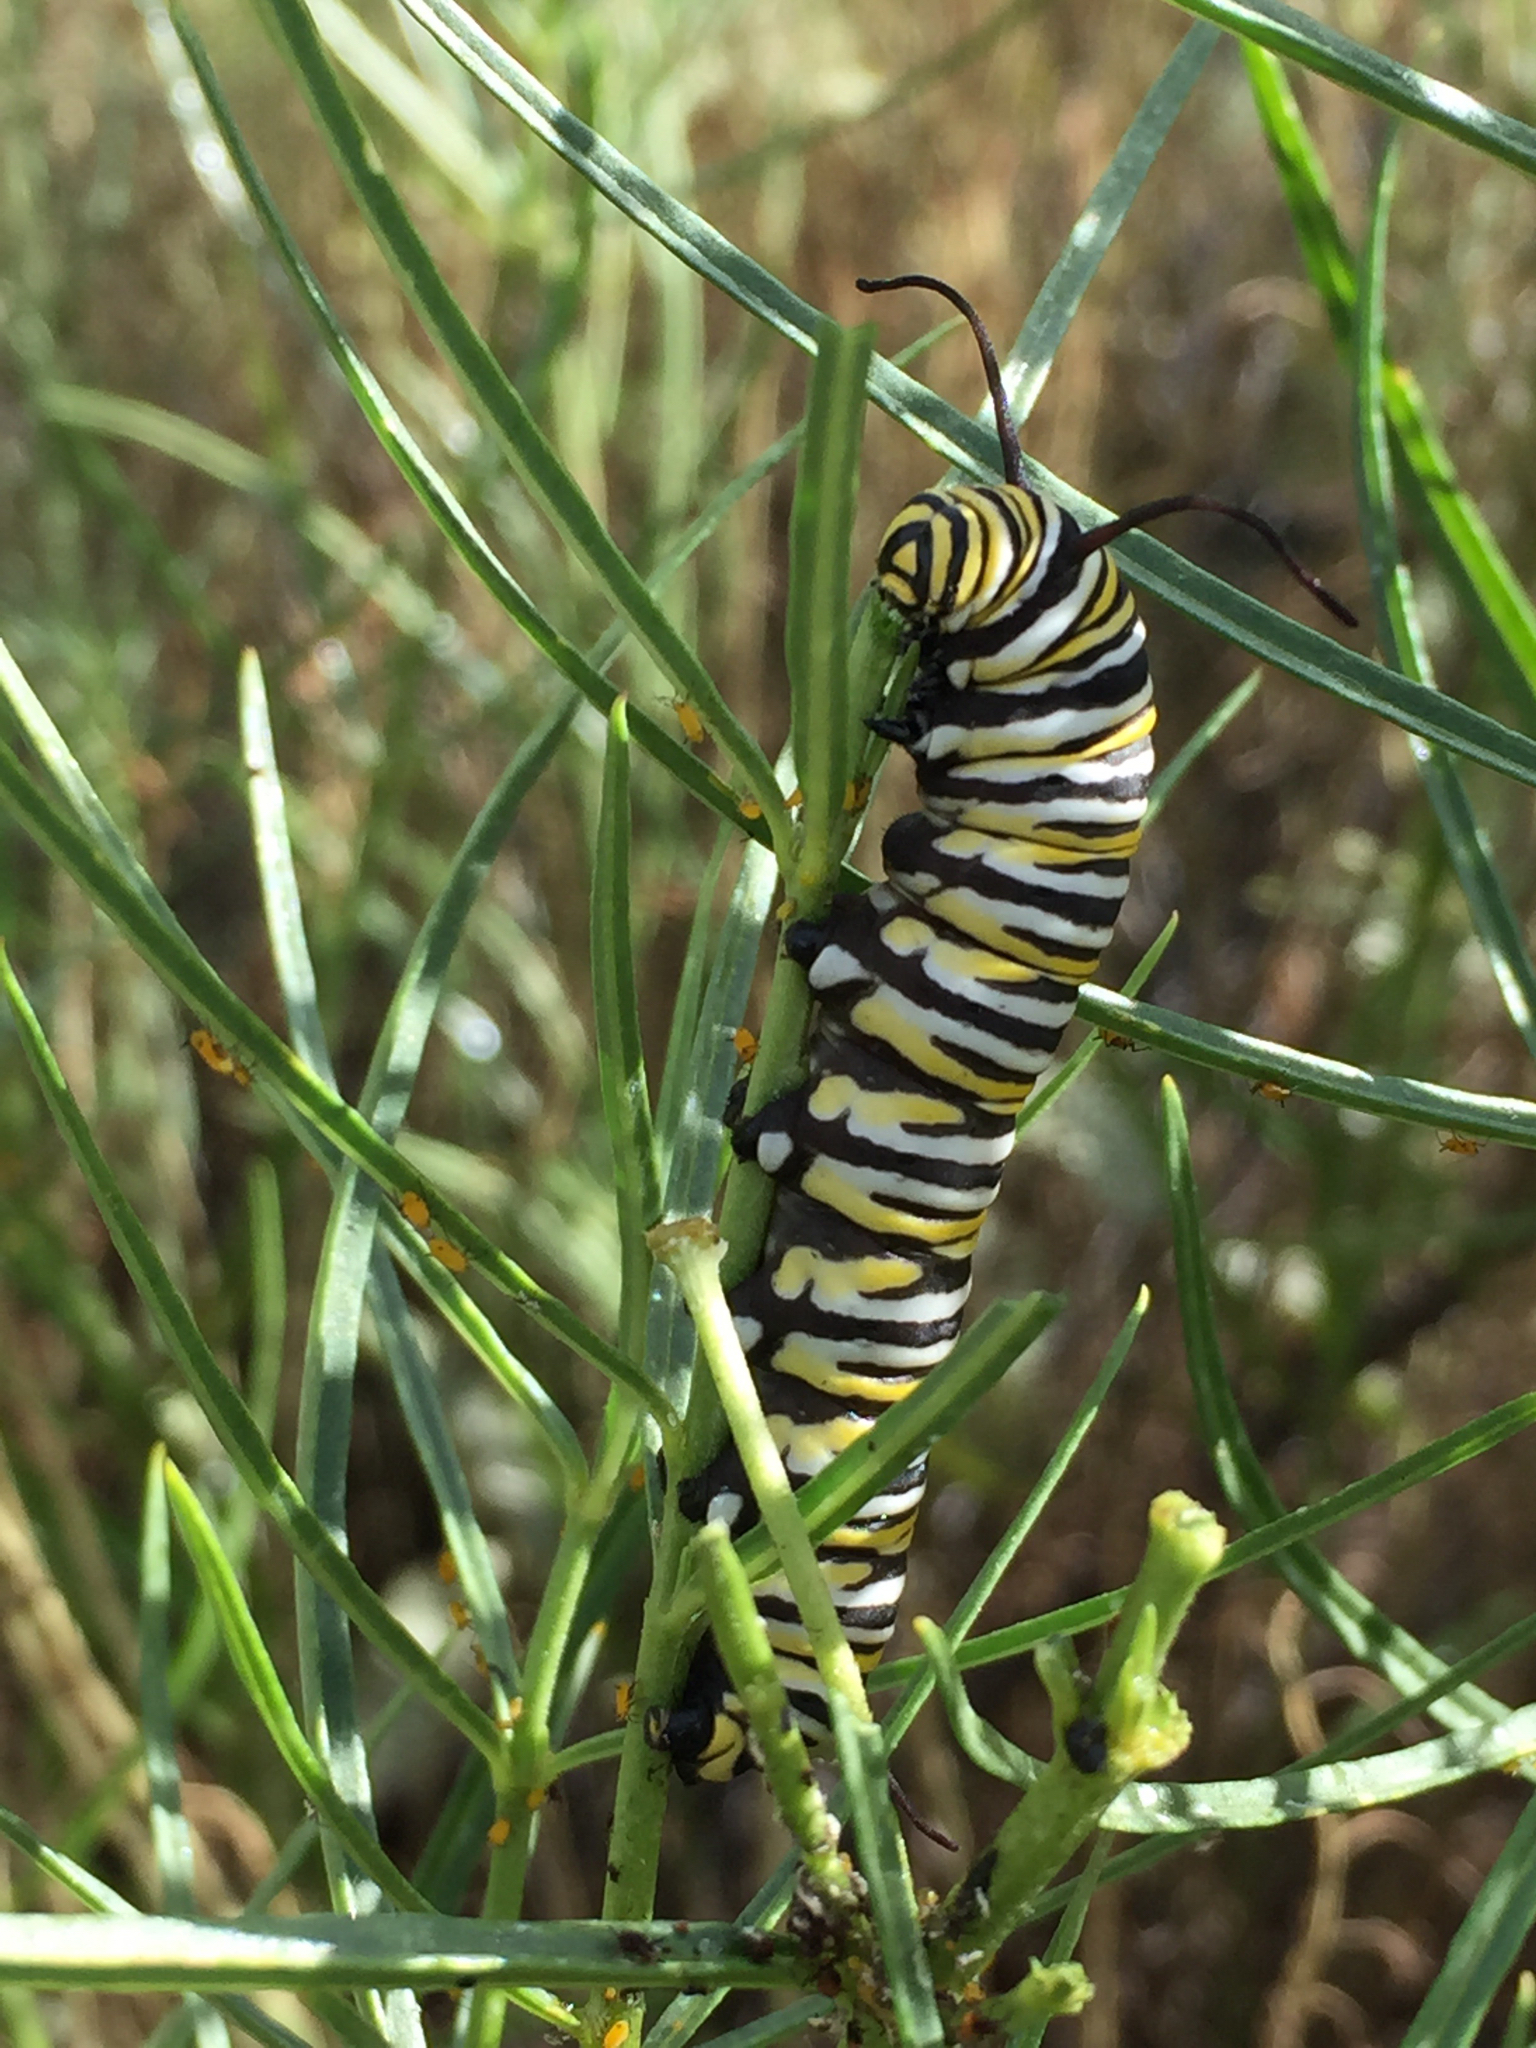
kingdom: Animalia
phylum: Arthropoda
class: Insecta
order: Lepidoptera
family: Nymphalidae
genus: Danaus
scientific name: Danaus plexippus
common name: Monarch
